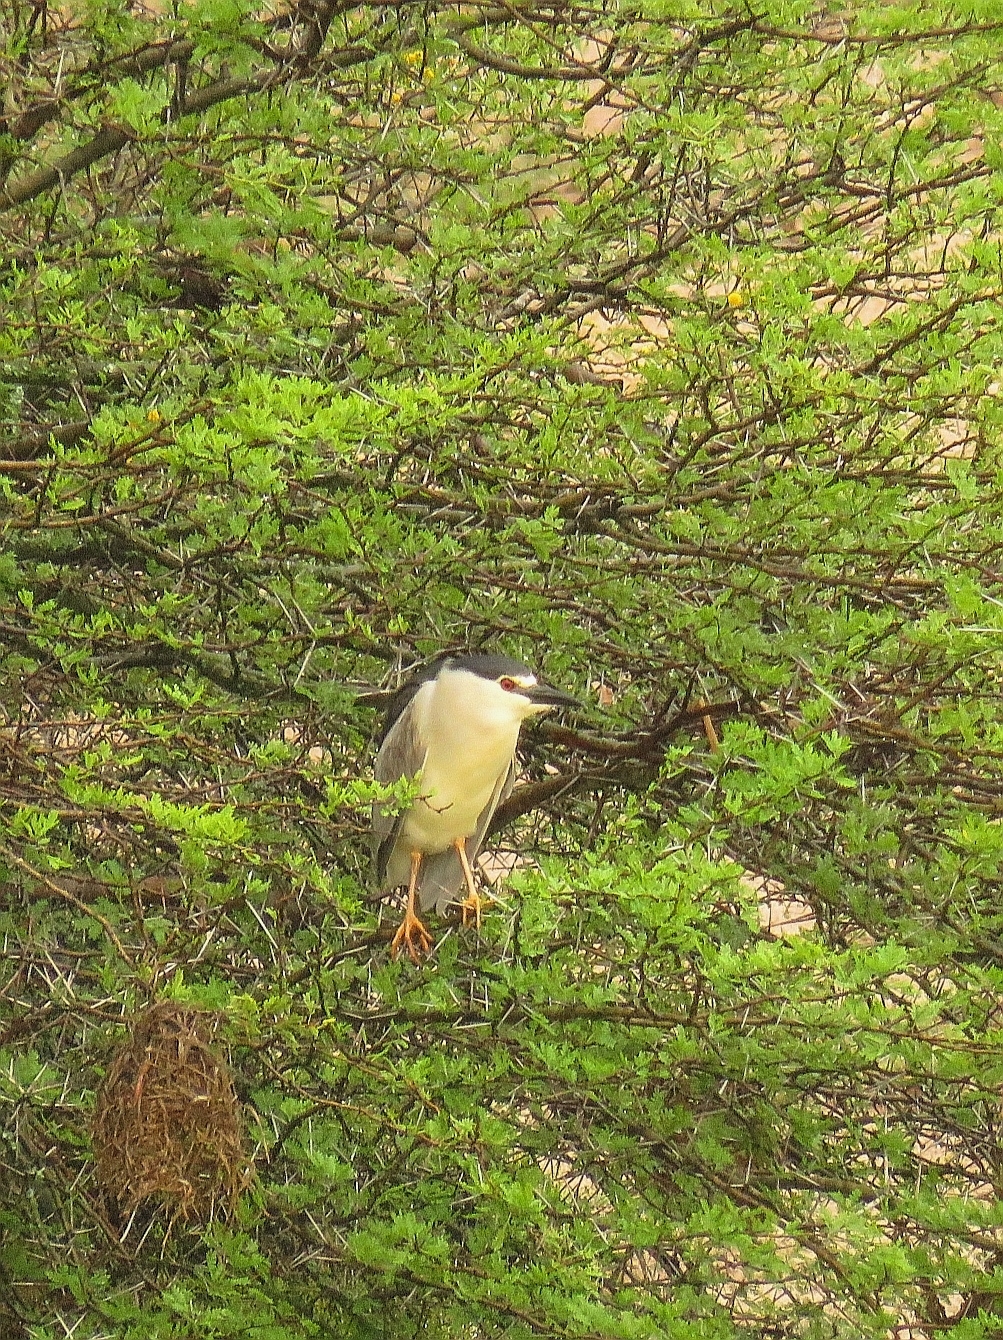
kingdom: Animalia
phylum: Chordata
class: Aves
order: Pelecaniformes
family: Ardeidae
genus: Nycticorax
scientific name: Nycticorax nycticorax
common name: Black-crowned night heron
